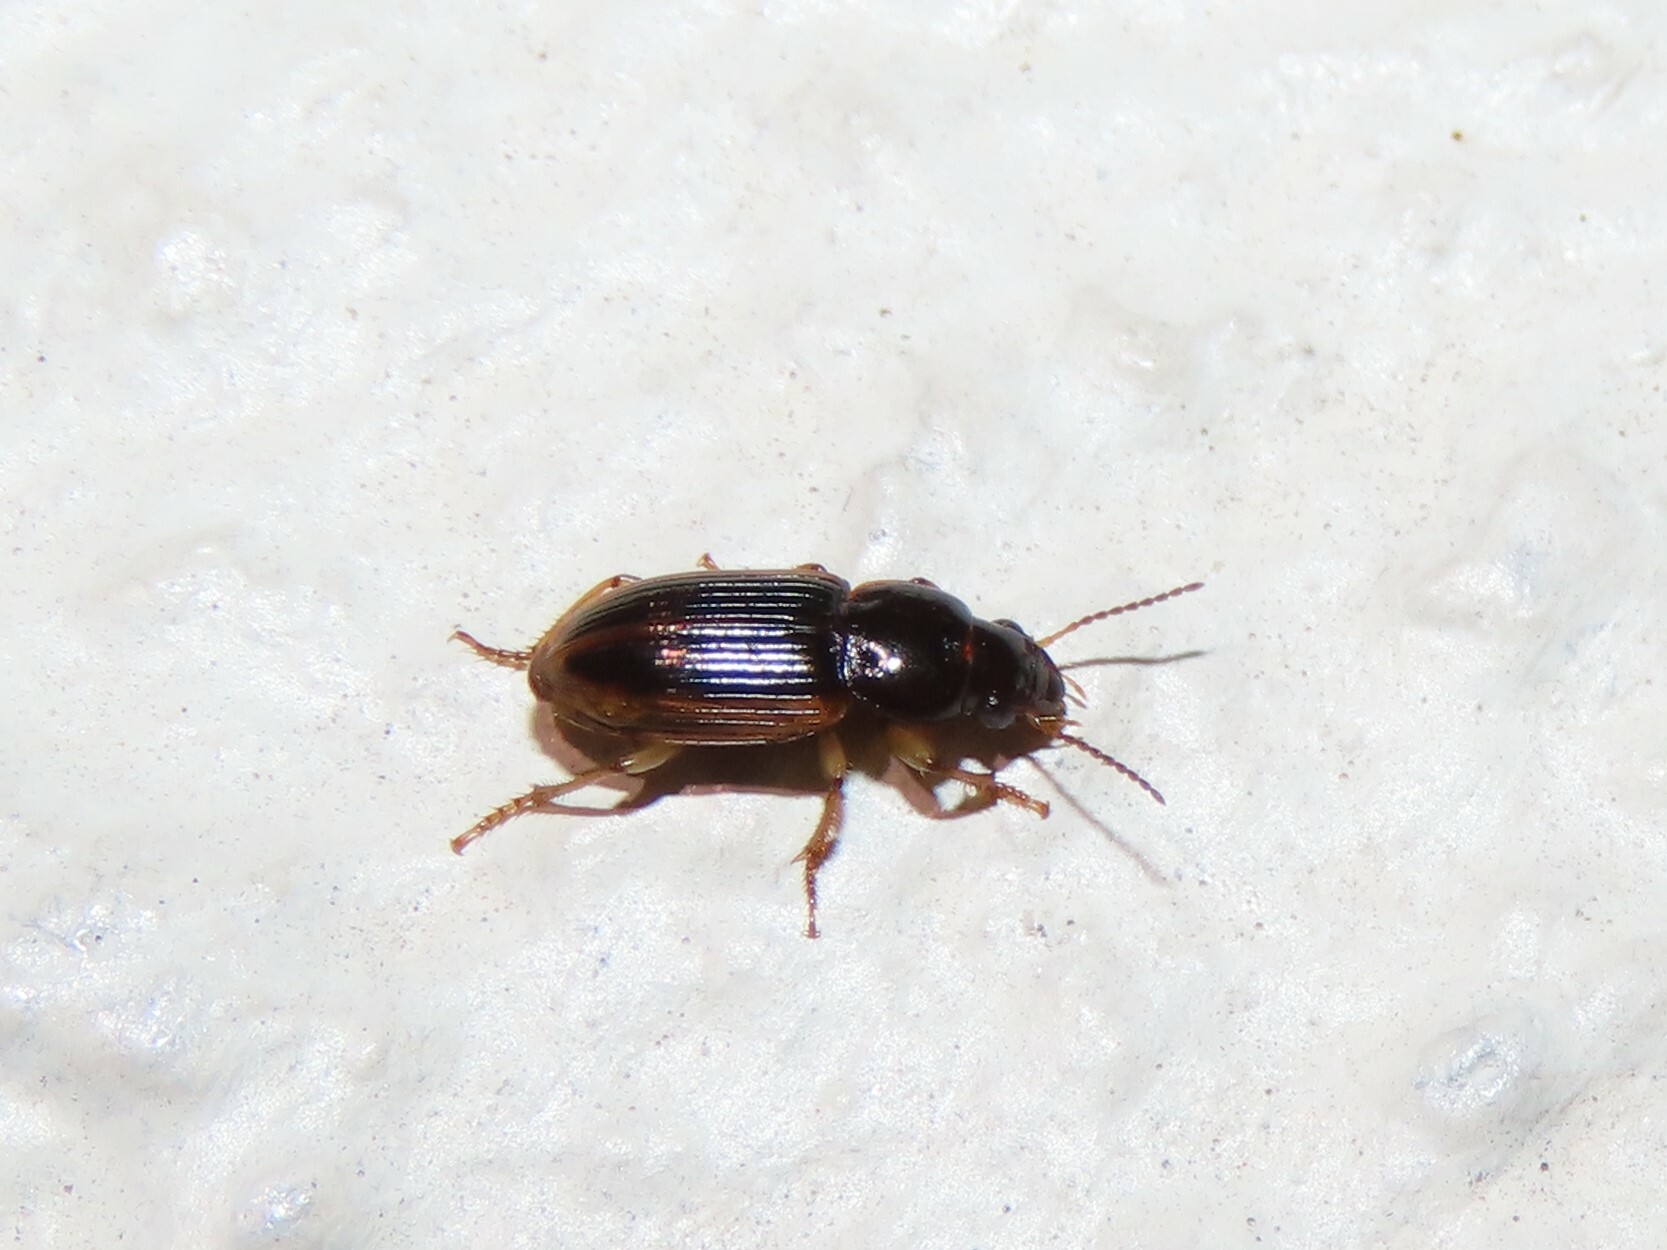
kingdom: Animalia
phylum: Arthropoda
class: Insecta
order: Coleoptera
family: Carabidae
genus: Stenolophus
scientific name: Stenolophus infuscatus
